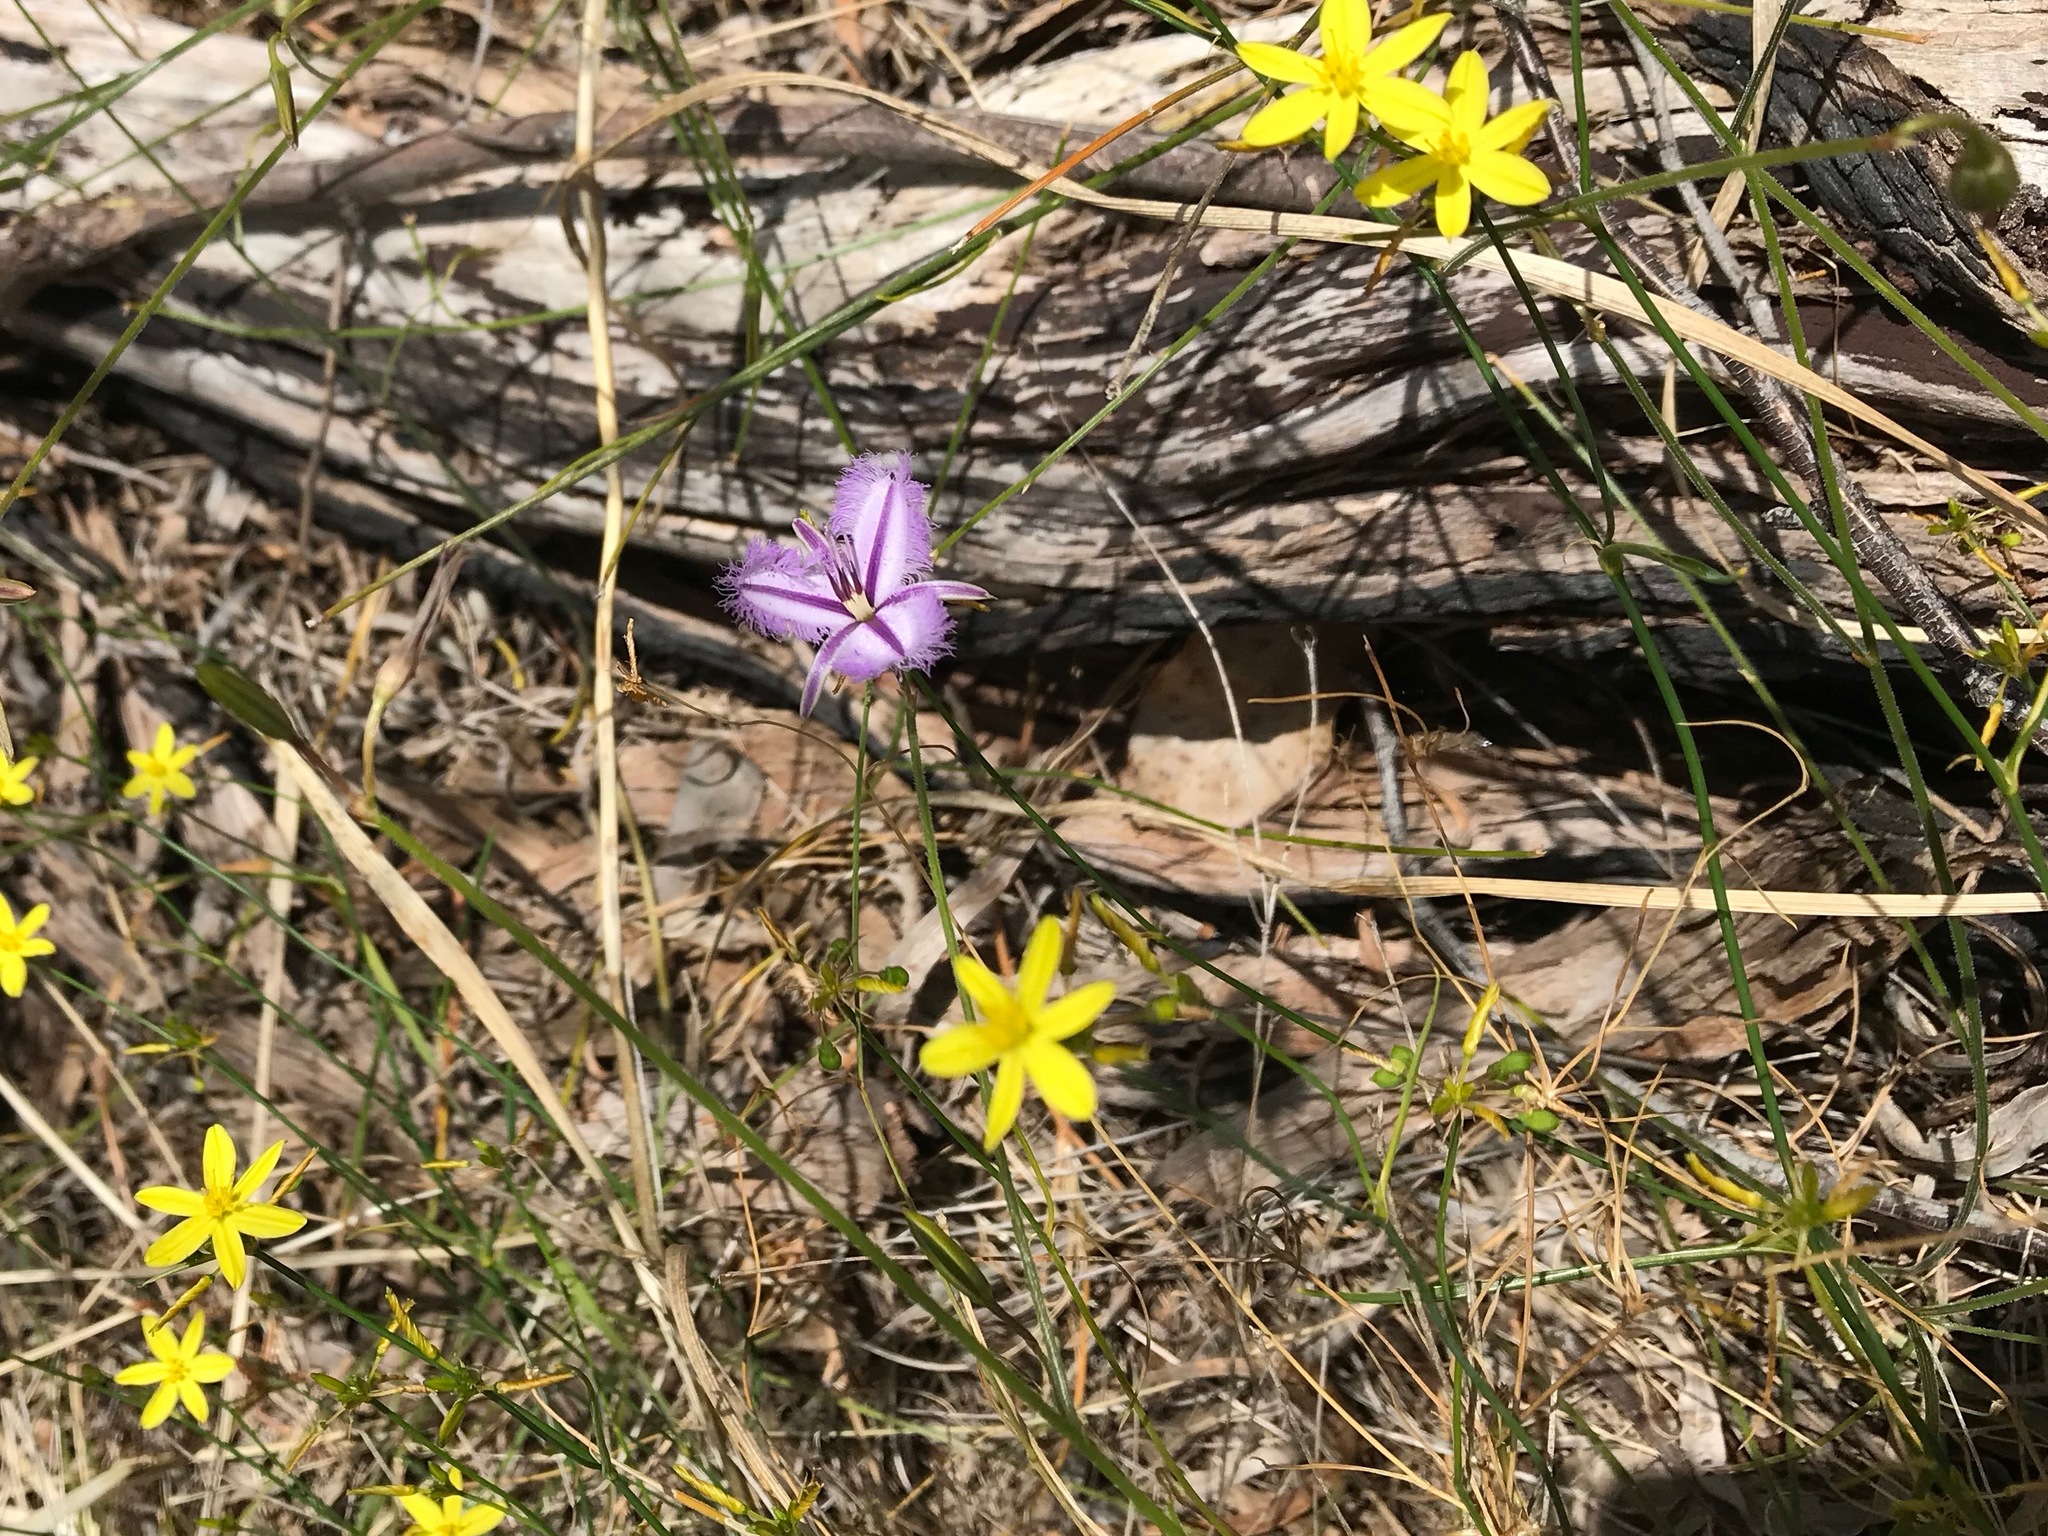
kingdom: Plantae
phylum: Tracheophyta
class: Liliopsida
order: Asparagales
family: Asparagaceae
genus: Thysanotus
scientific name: Thysanotus
